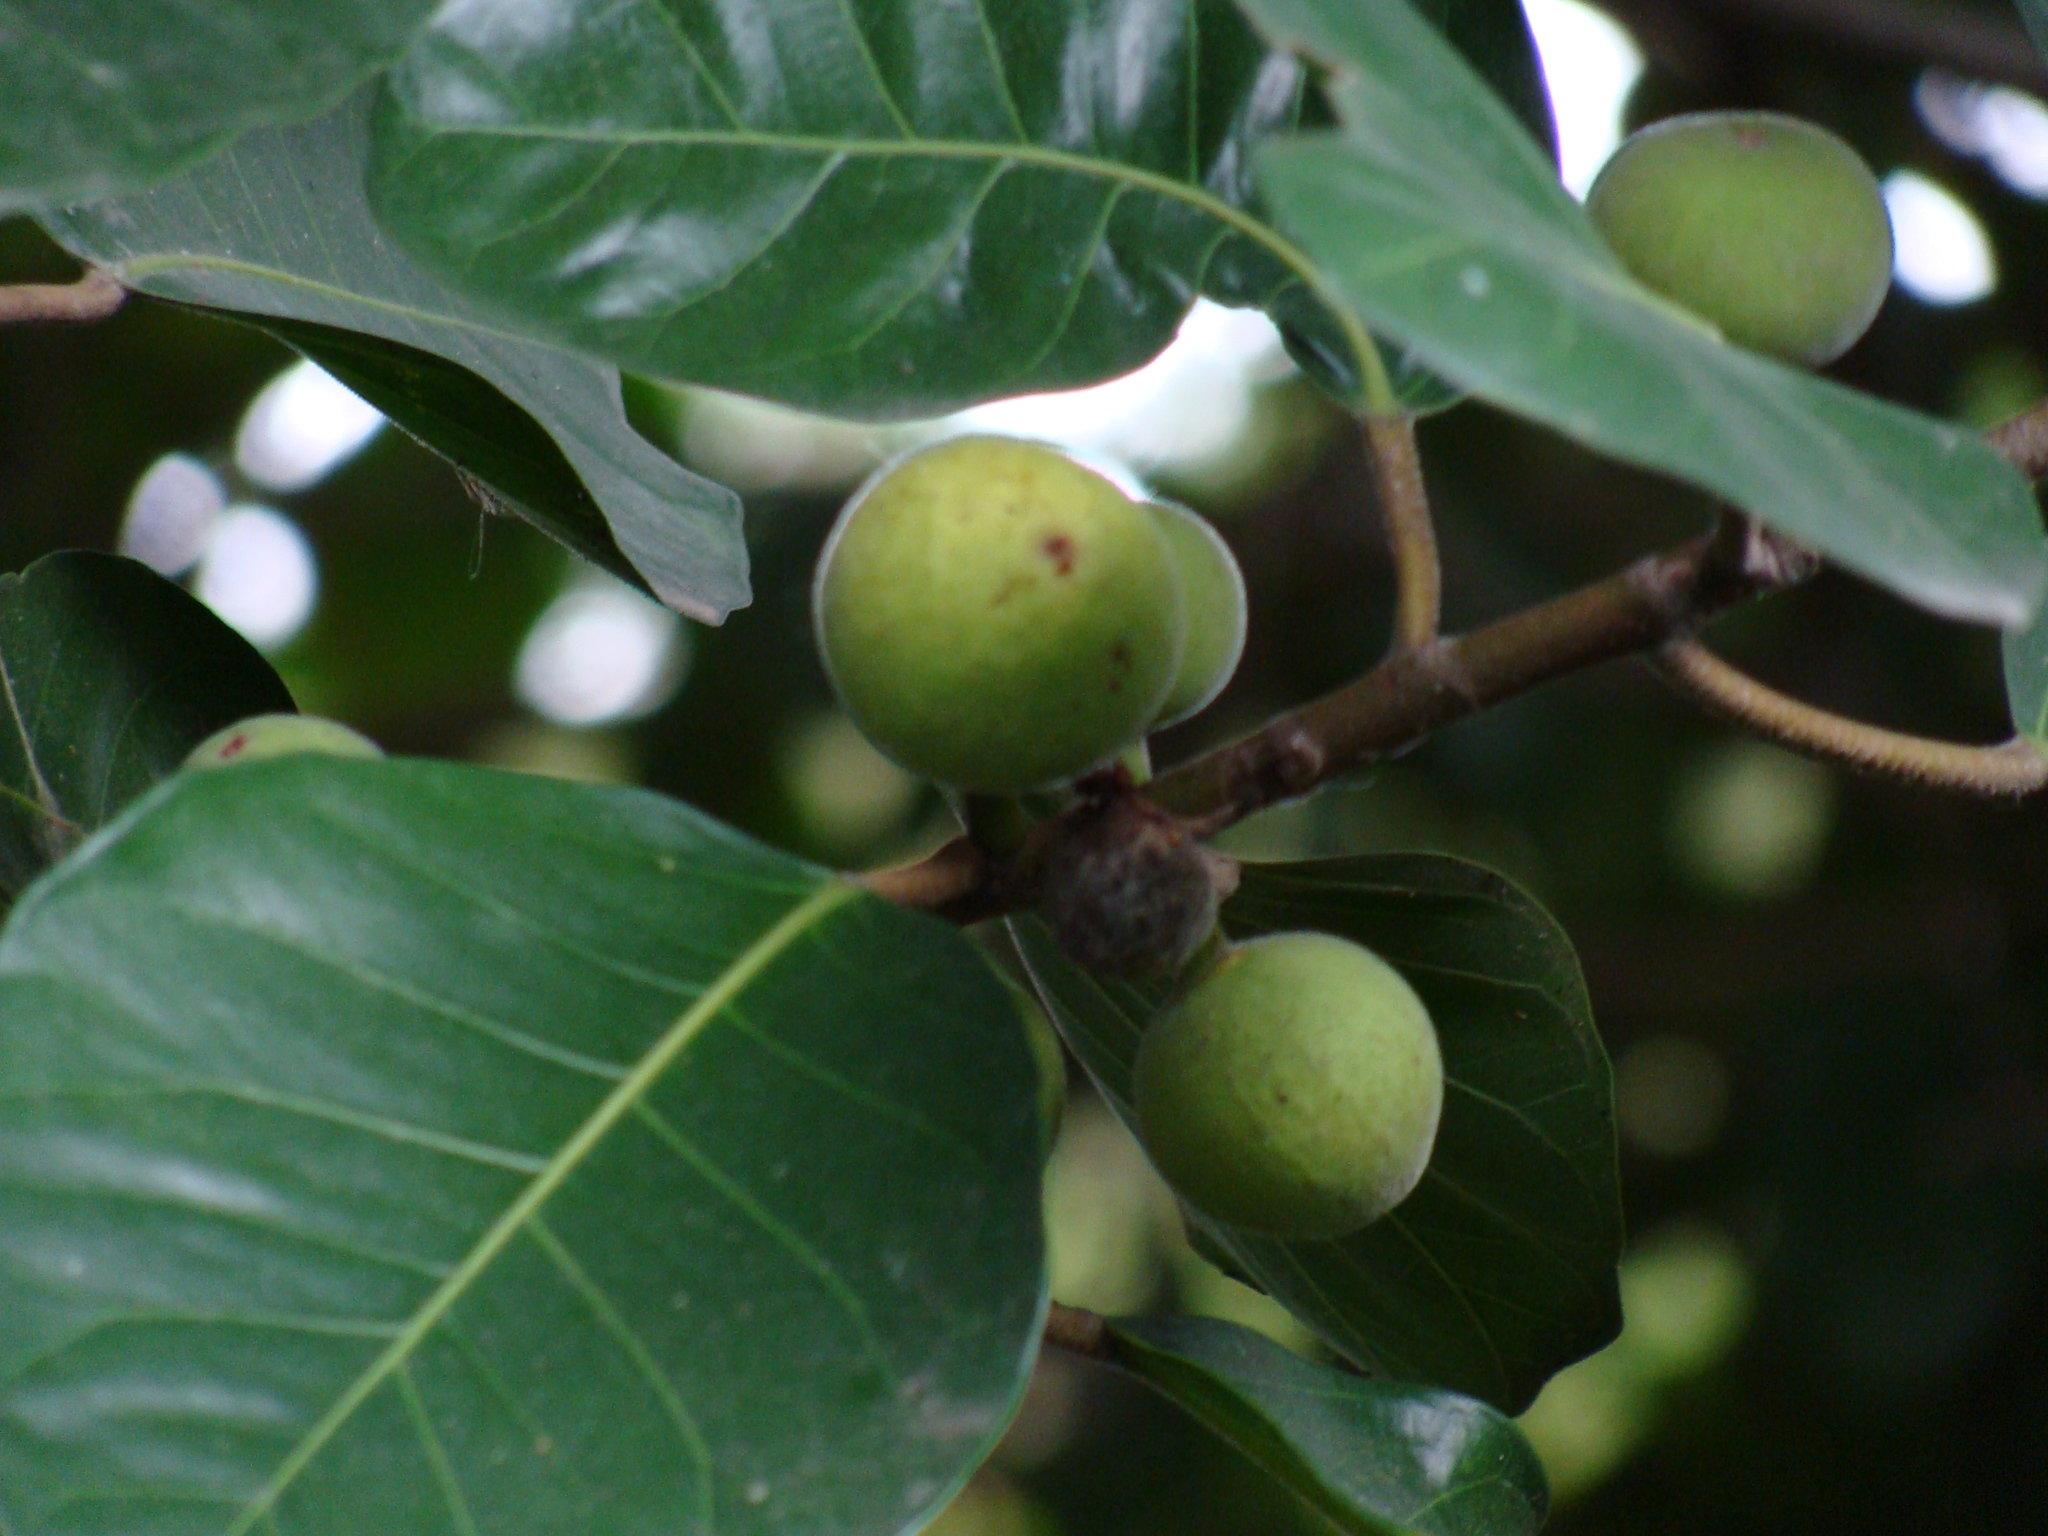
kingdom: Plantae
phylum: Tracheophyta
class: Magnoliopsida
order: Rosales
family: Moraceae
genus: Ficus
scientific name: Ficus maxima
